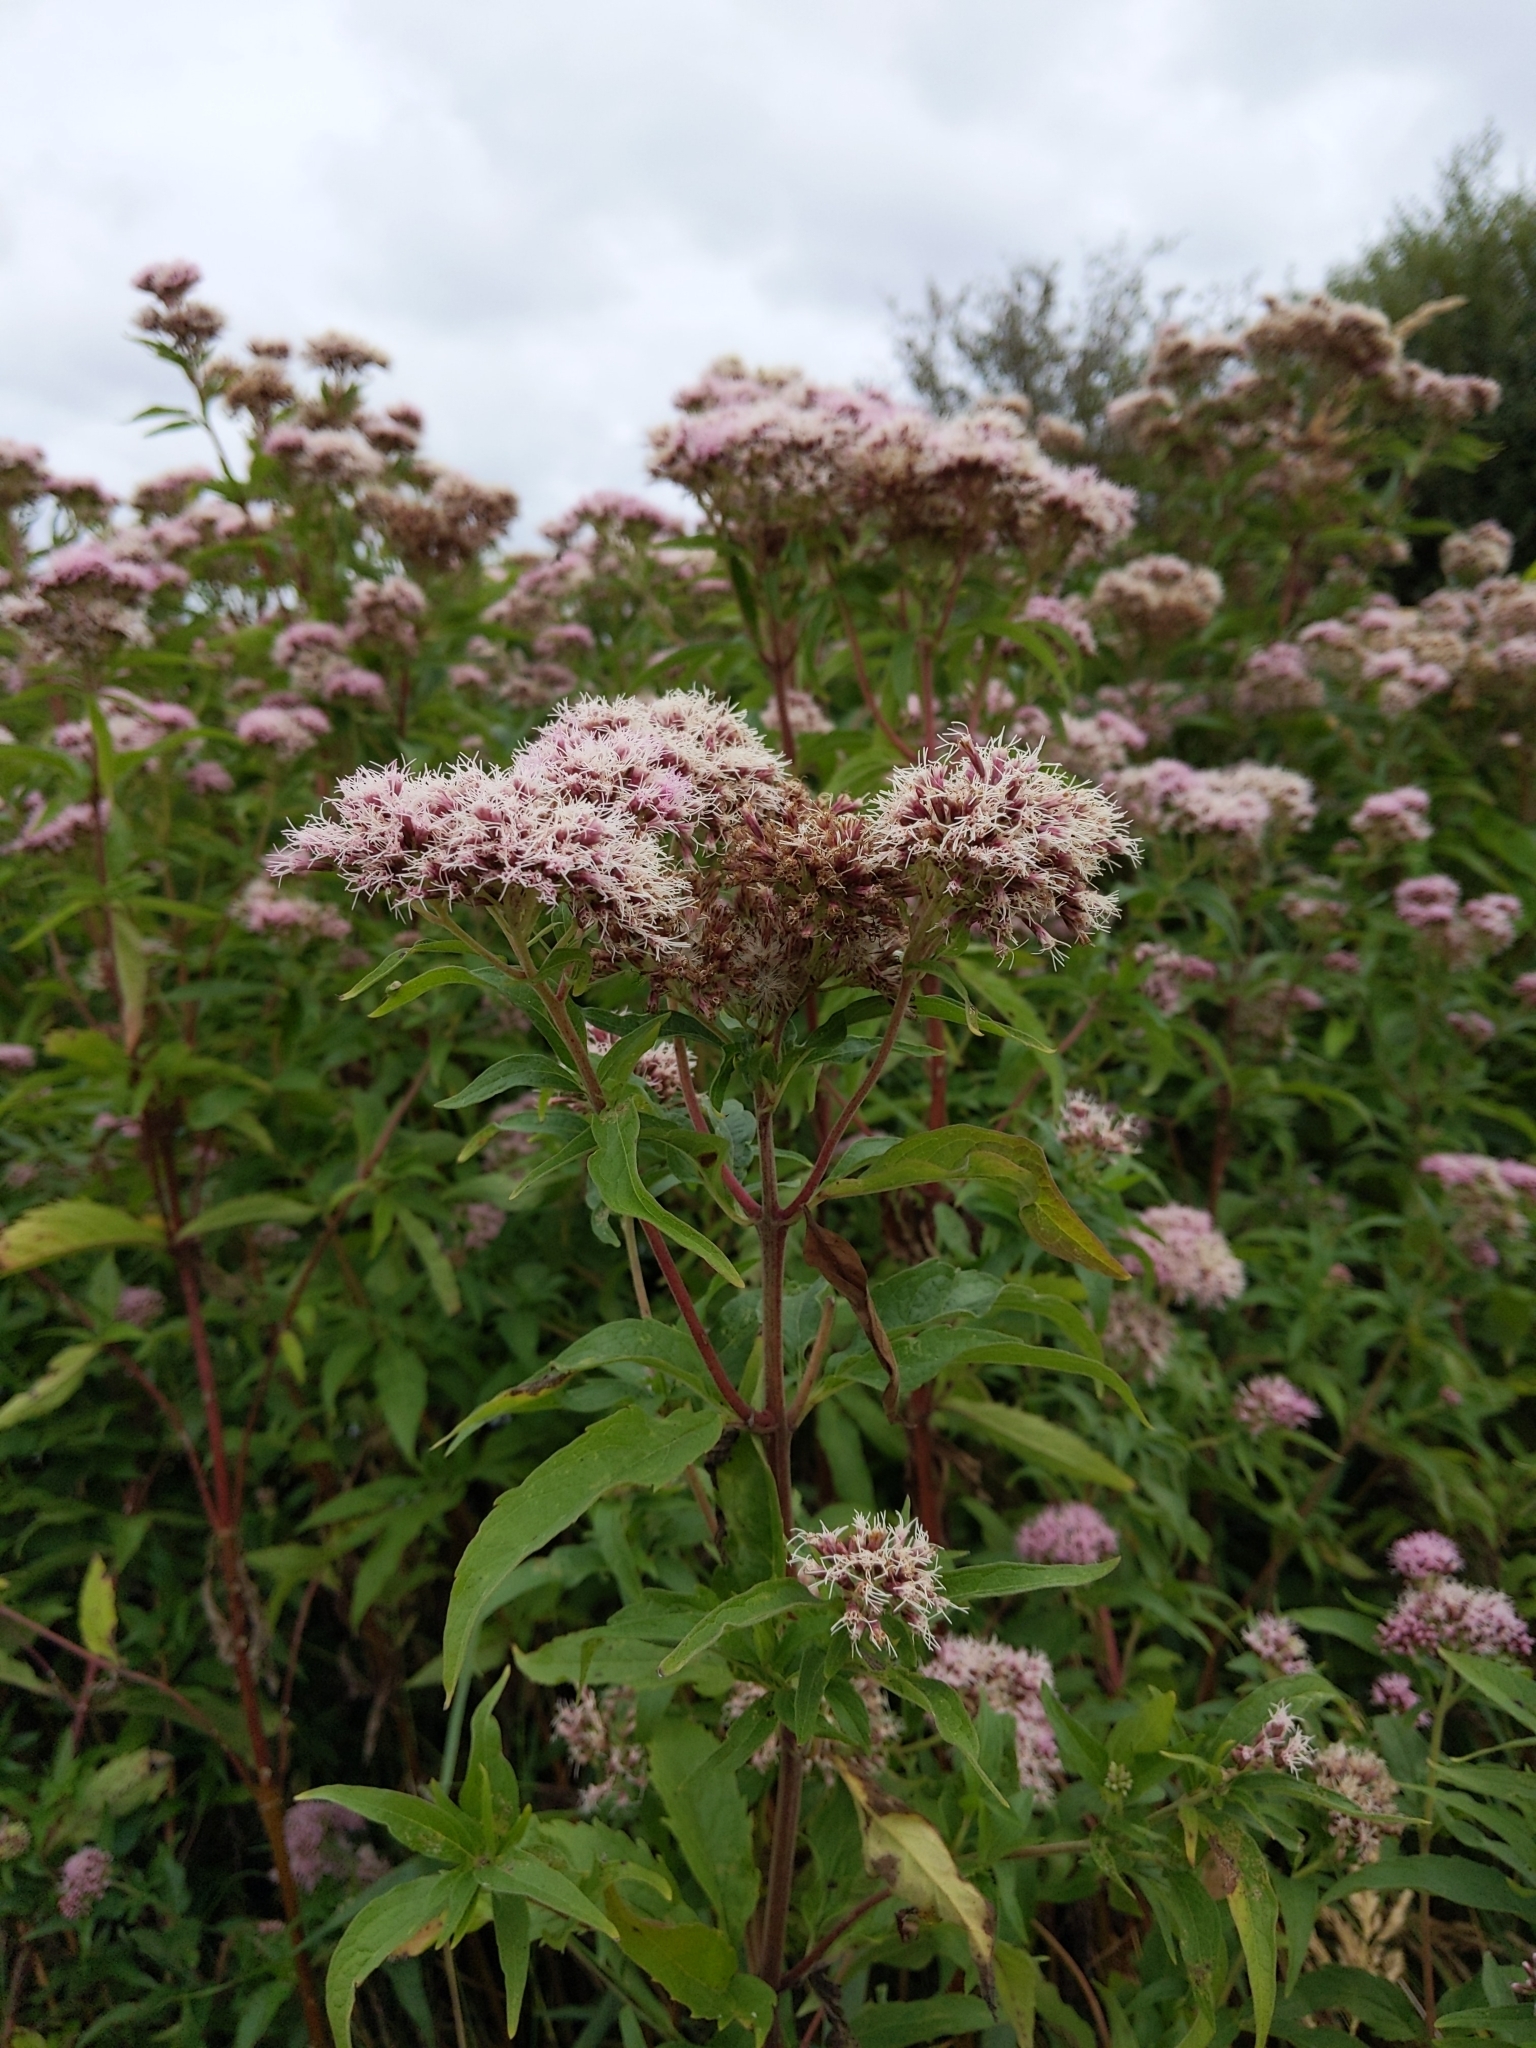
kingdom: Plantae
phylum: Tracheophyta
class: Magnoliopsida
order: Asterales
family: Asteraceae
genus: Eupatorium
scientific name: Eupatorium cannabinum
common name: Hemp-agrimony
